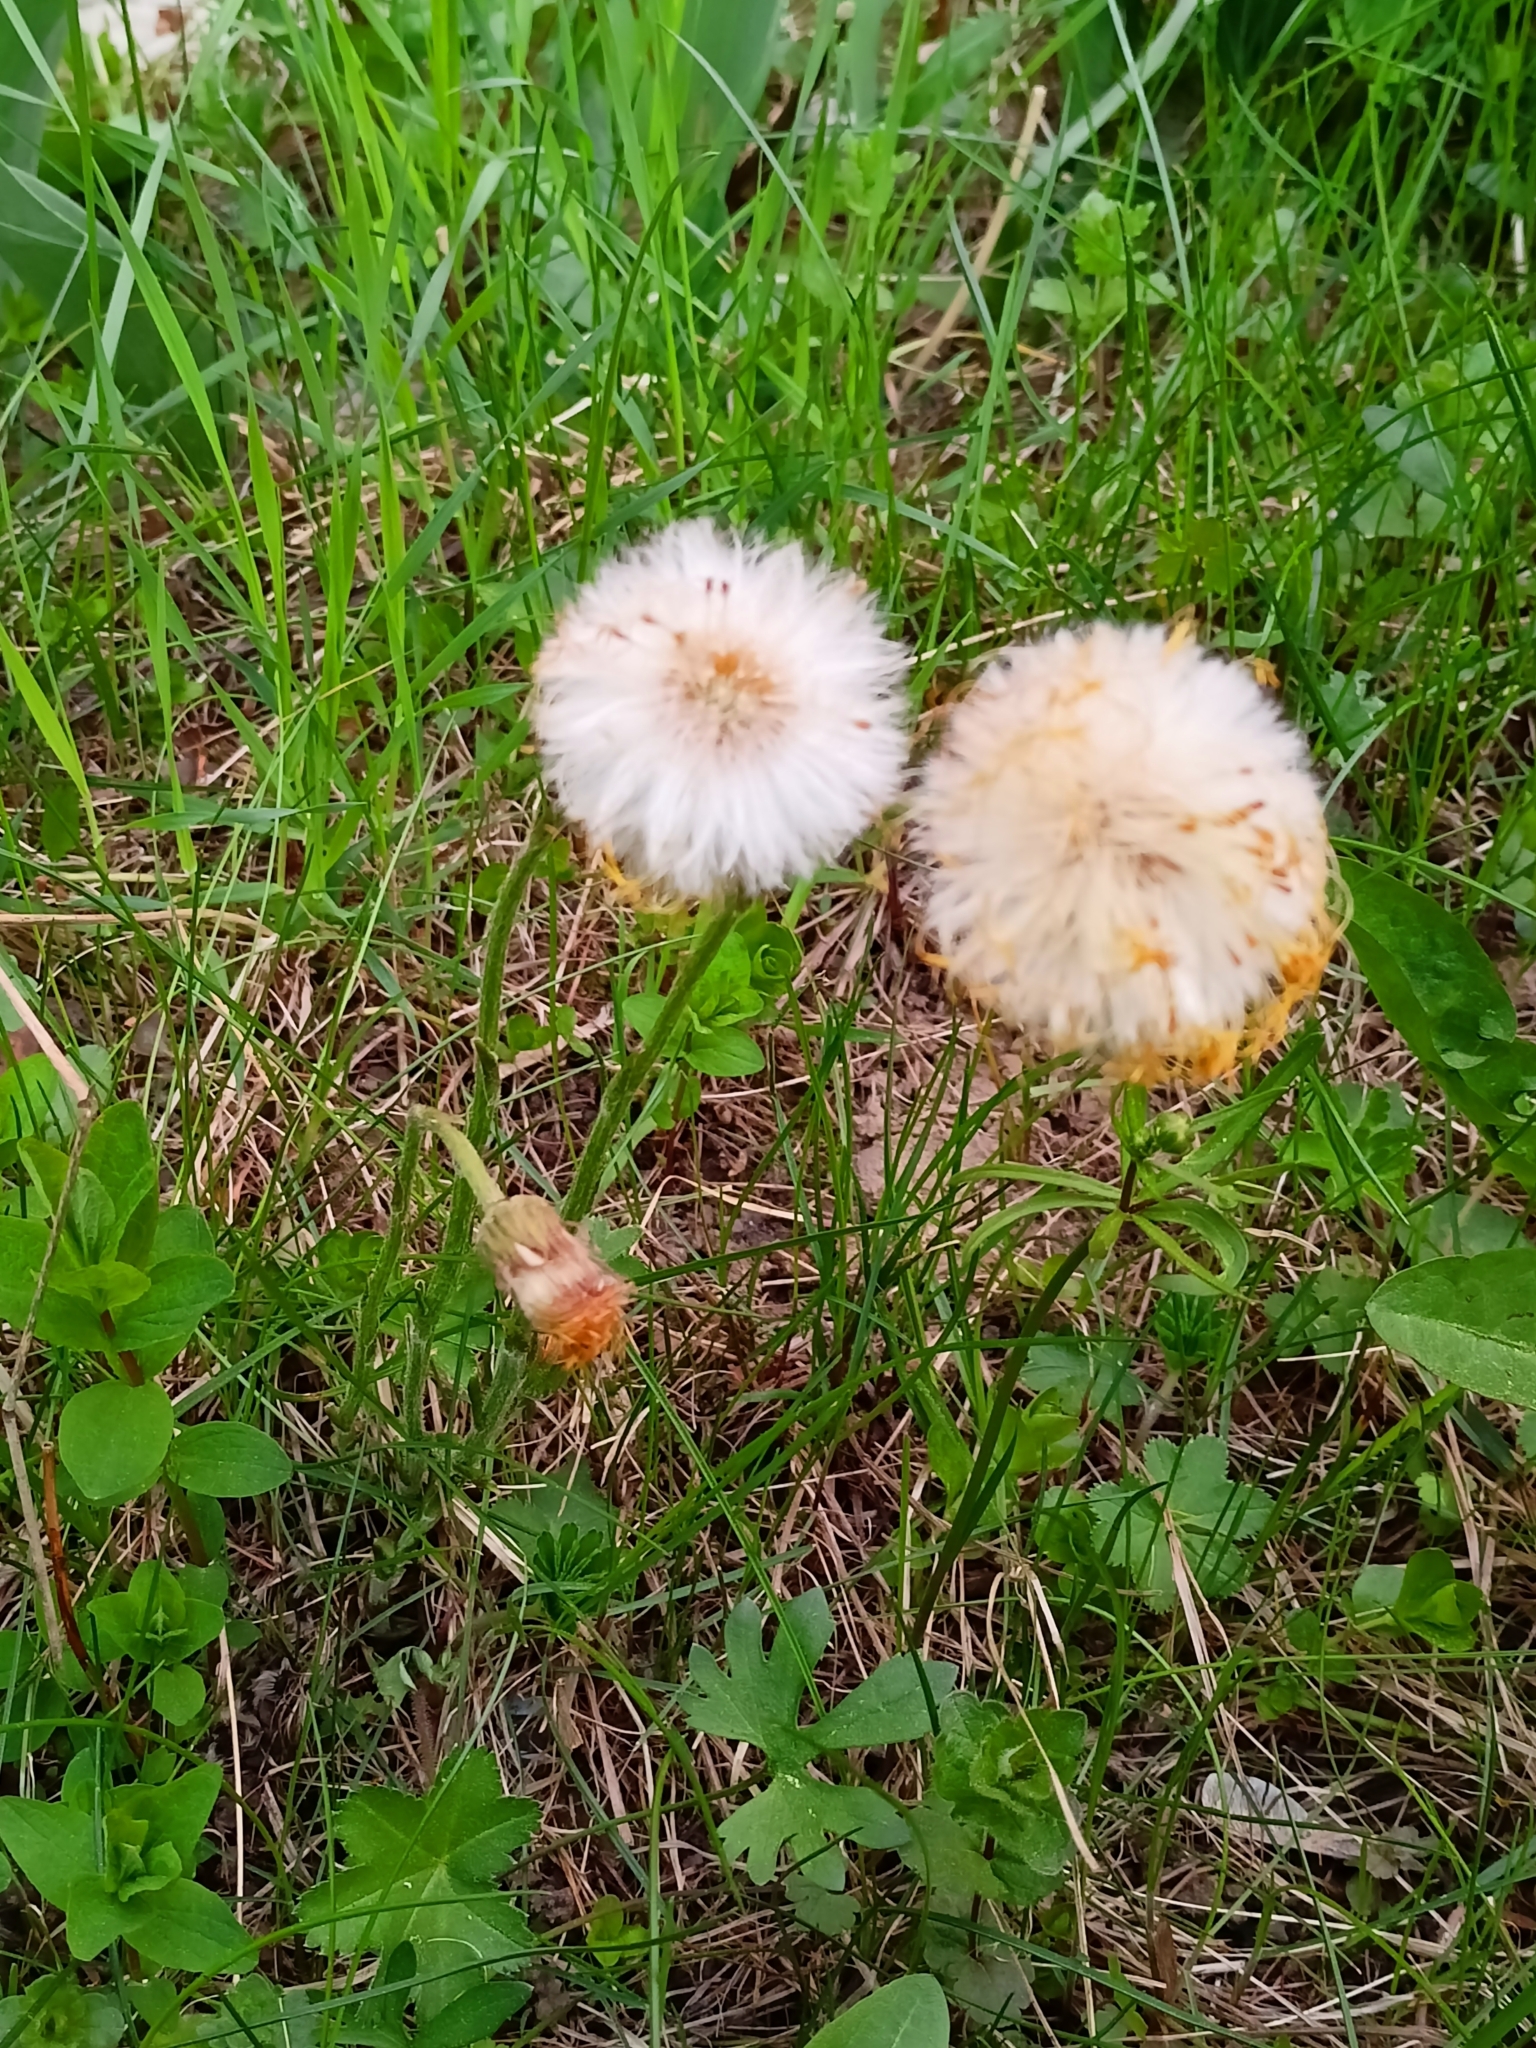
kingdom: Plantae
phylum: Tracheophyta
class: Magnoliopsida
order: Asterales
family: Asteraceae
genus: Tussilago
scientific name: Tussilago farfara
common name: Coltsfoot
